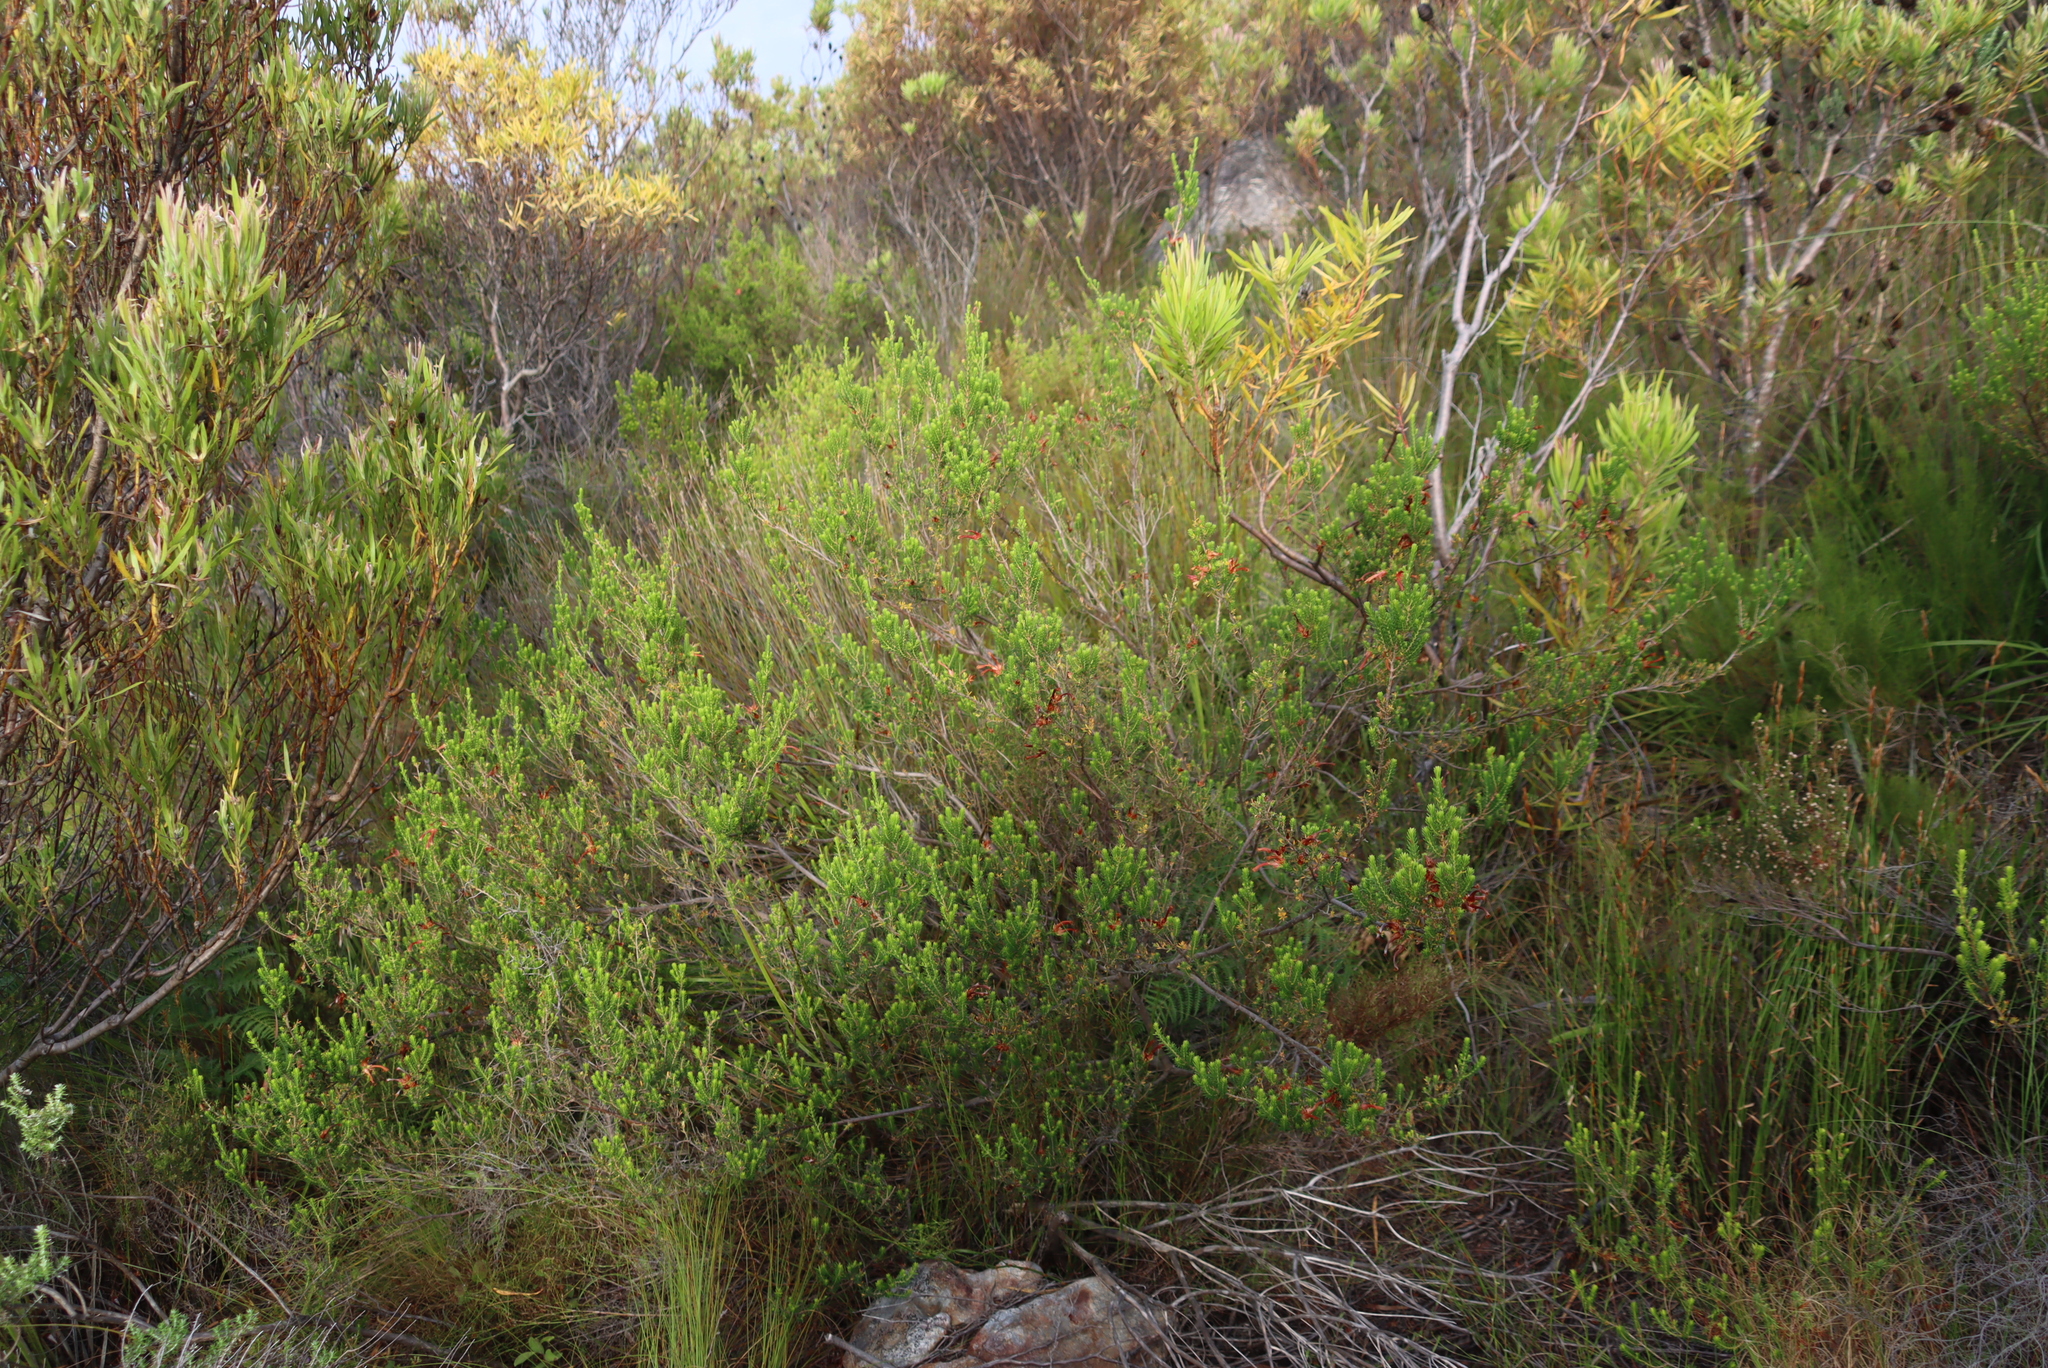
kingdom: Plantae
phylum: Tracheophyta
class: Magnoliopsida
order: Ericales
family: Ericaceae
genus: Erica
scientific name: Erica discolor
